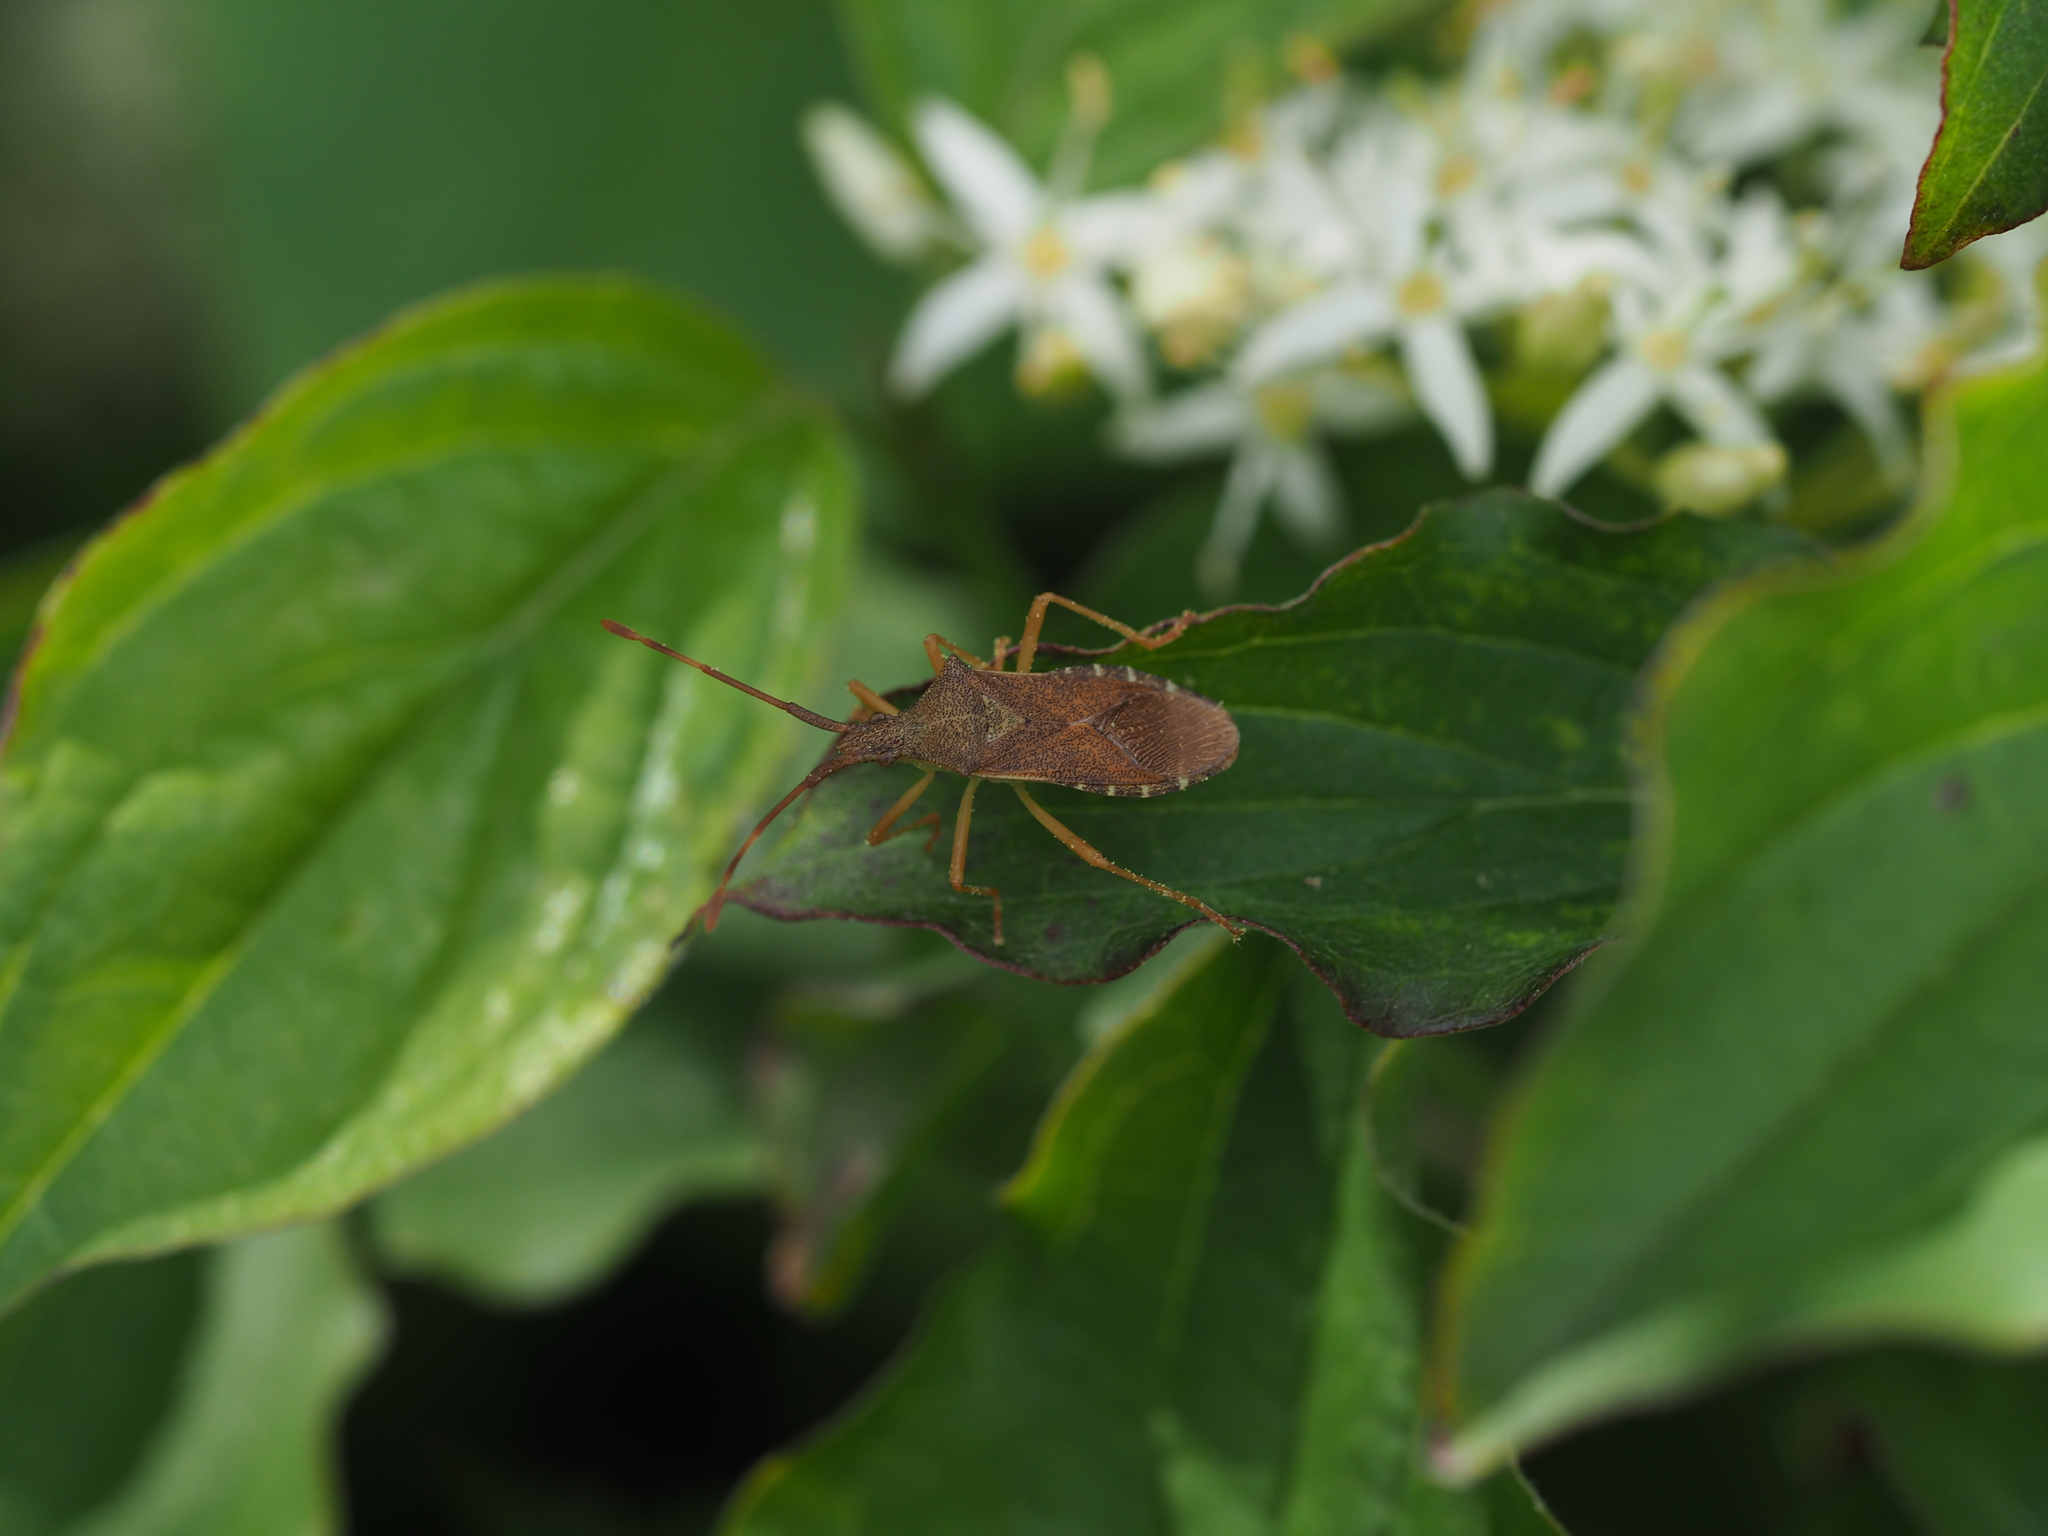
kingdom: Animalia
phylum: Arthropoda
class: Insecta
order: Hemiptera
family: Coreidae
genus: Gonocerus
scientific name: Gonocerus acuteangulatus
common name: Box bug
